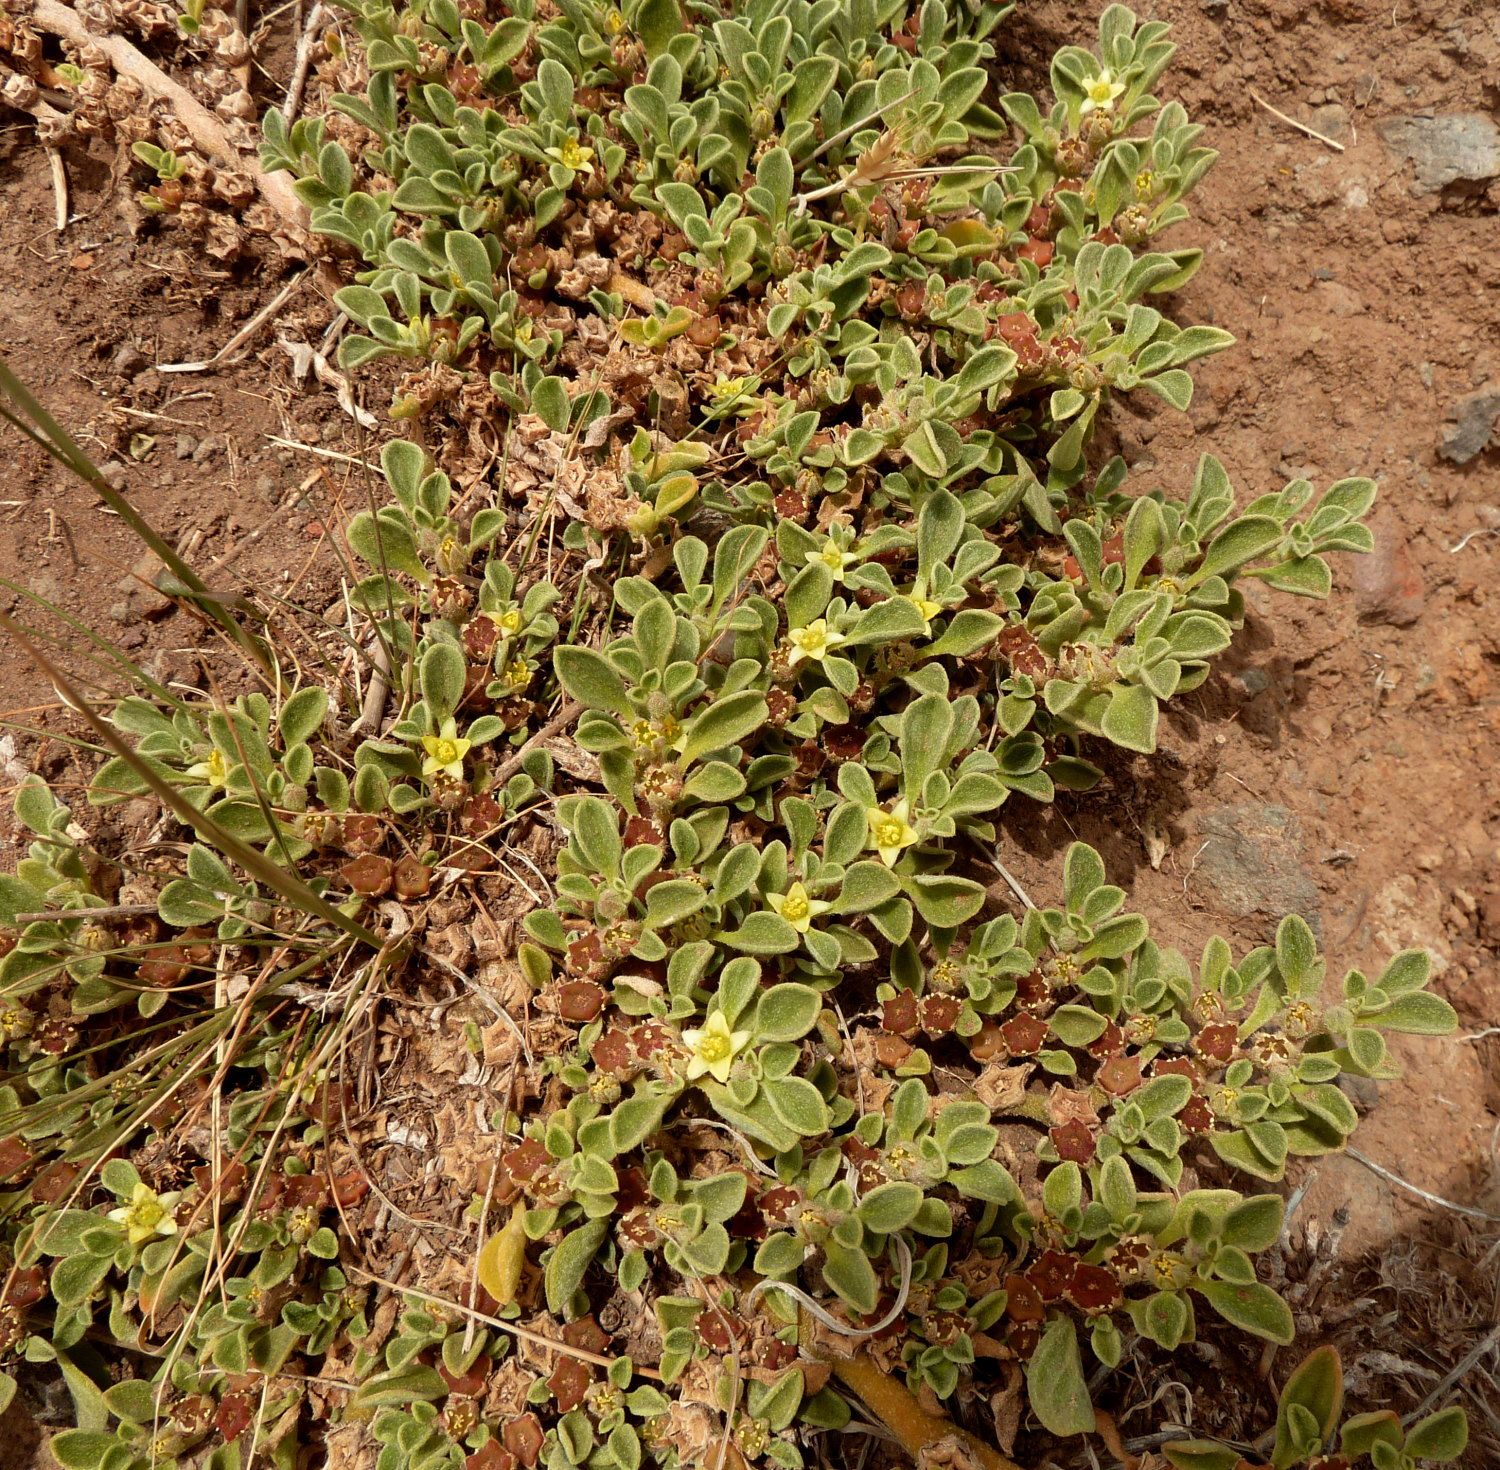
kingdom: Plantae
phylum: Tracheophyta
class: Magnoliopsida
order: Caryophyllales
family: Aizoaceae
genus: Aizoon
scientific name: Aizoon canariense
